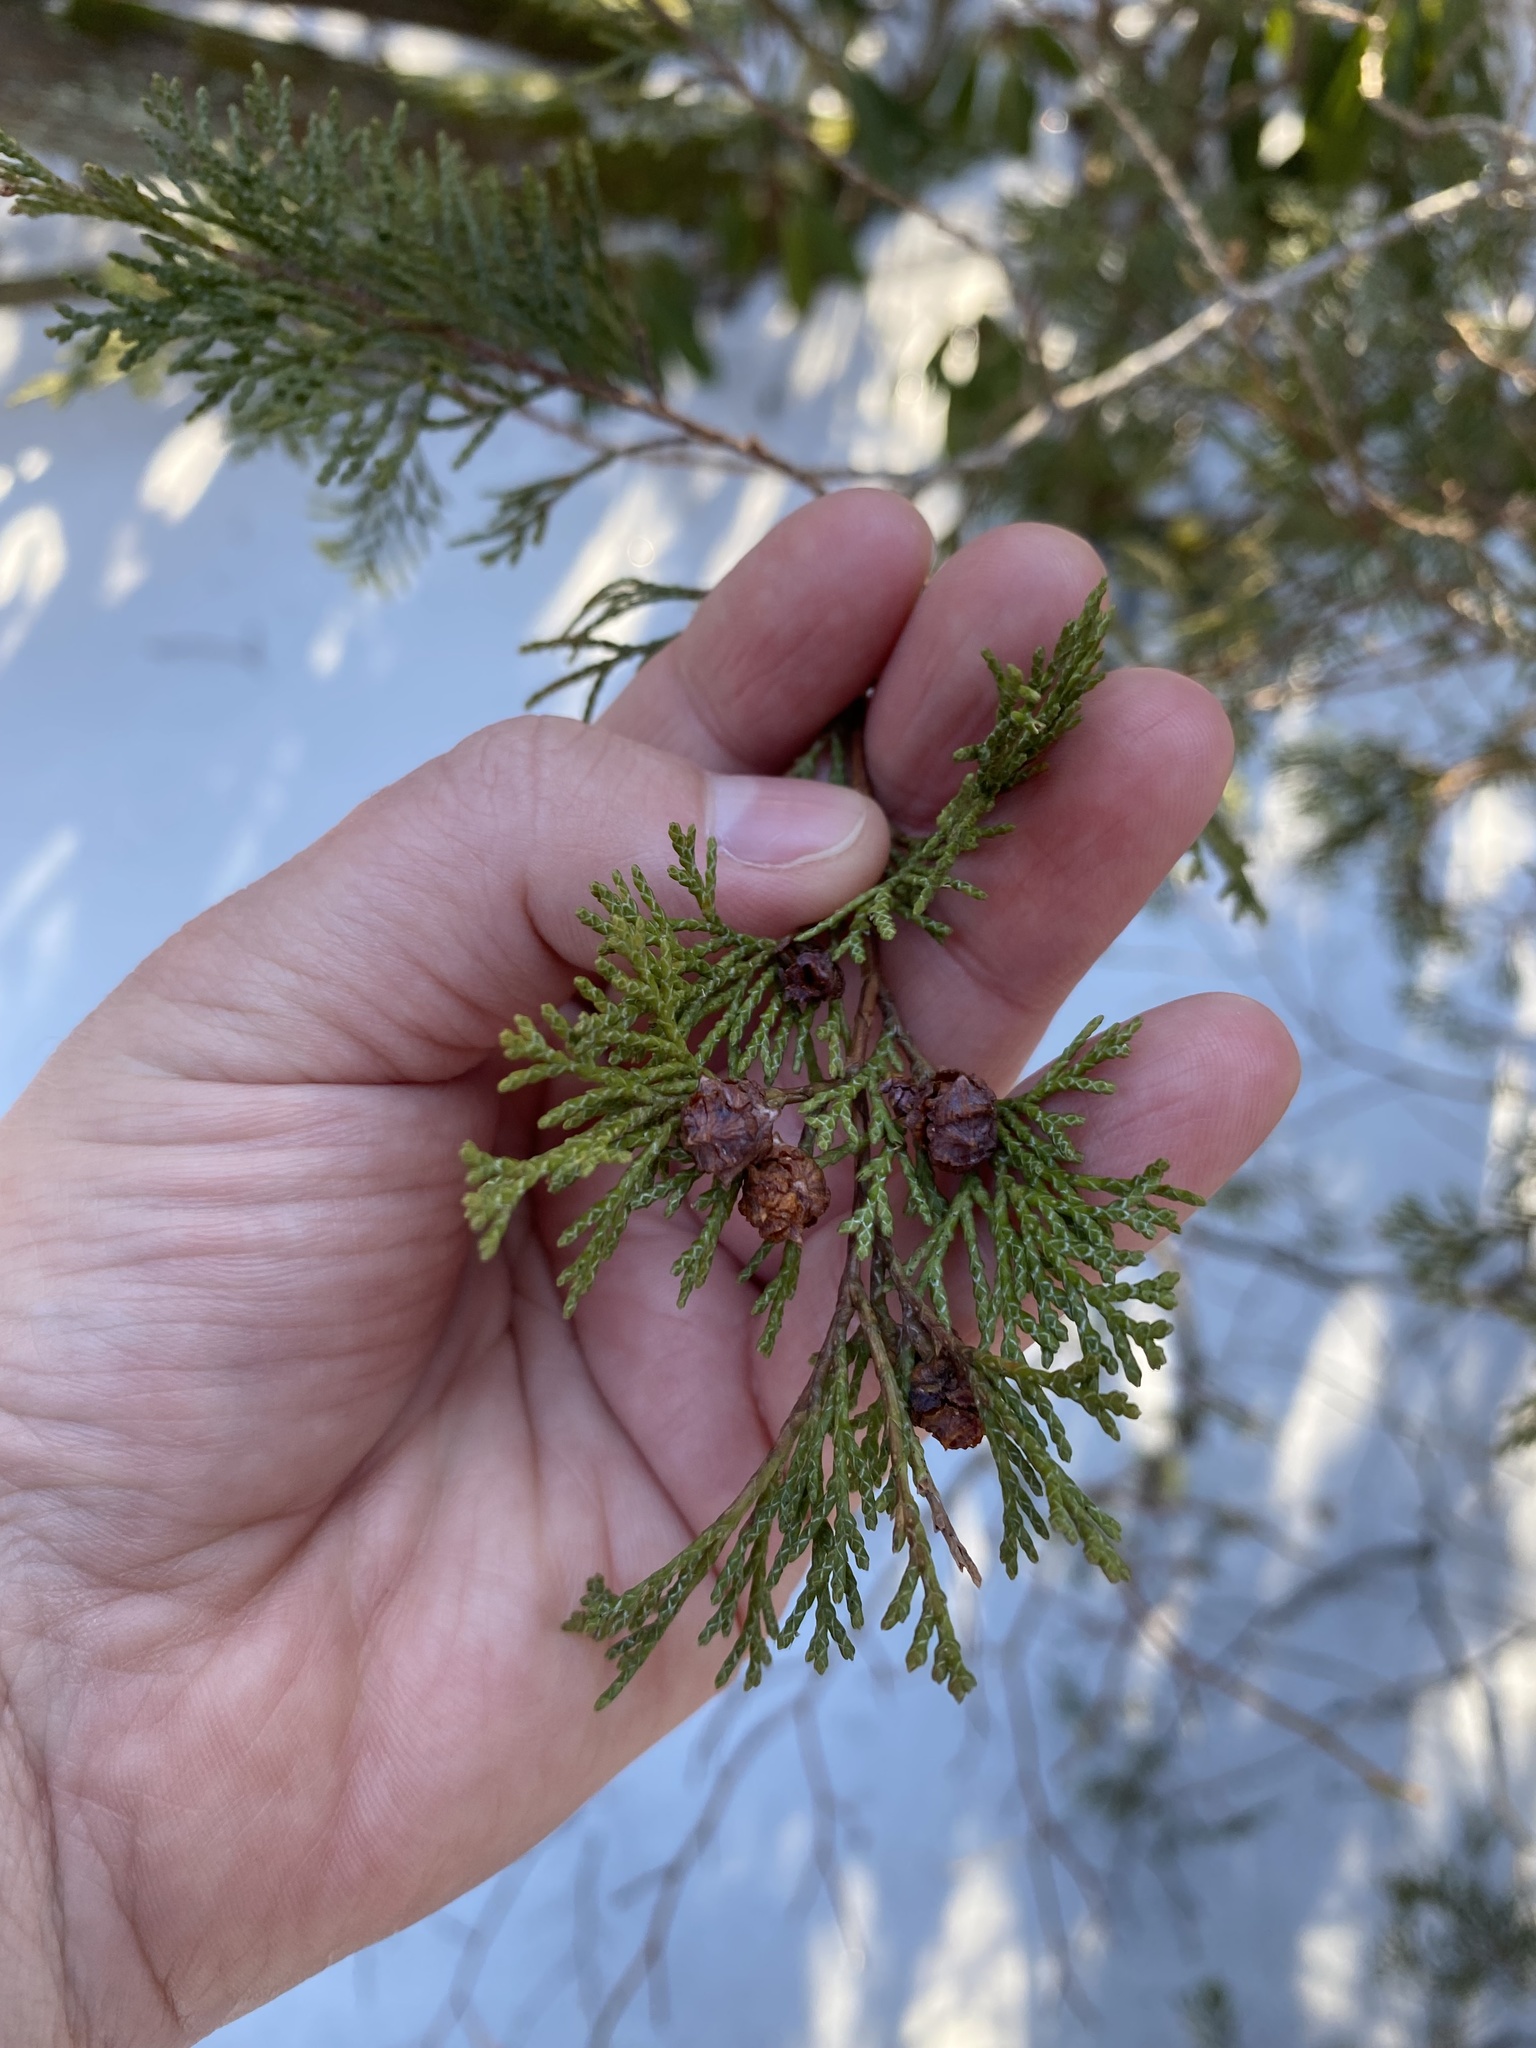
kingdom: Plantae
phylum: Tracheophyta
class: Pinopsida
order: Pinales
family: Cupressaceae
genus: Chamaecyparis
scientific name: Chamaecyparis thyoides
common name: Atlantic white cedar
